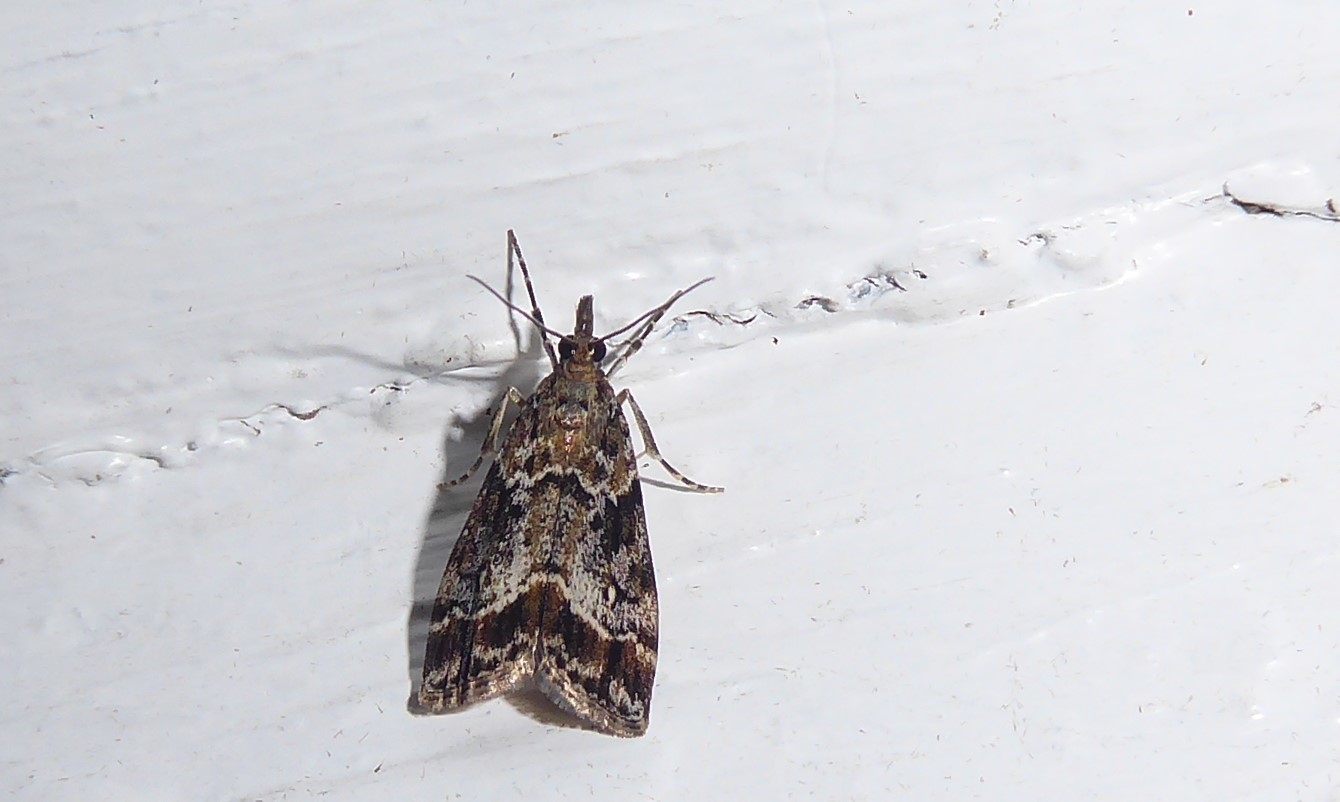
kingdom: Animalia
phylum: Arthropoda
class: Insecta
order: Lepidoptera
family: Crambidae
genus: Eudonia
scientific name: Eudonia legnota
